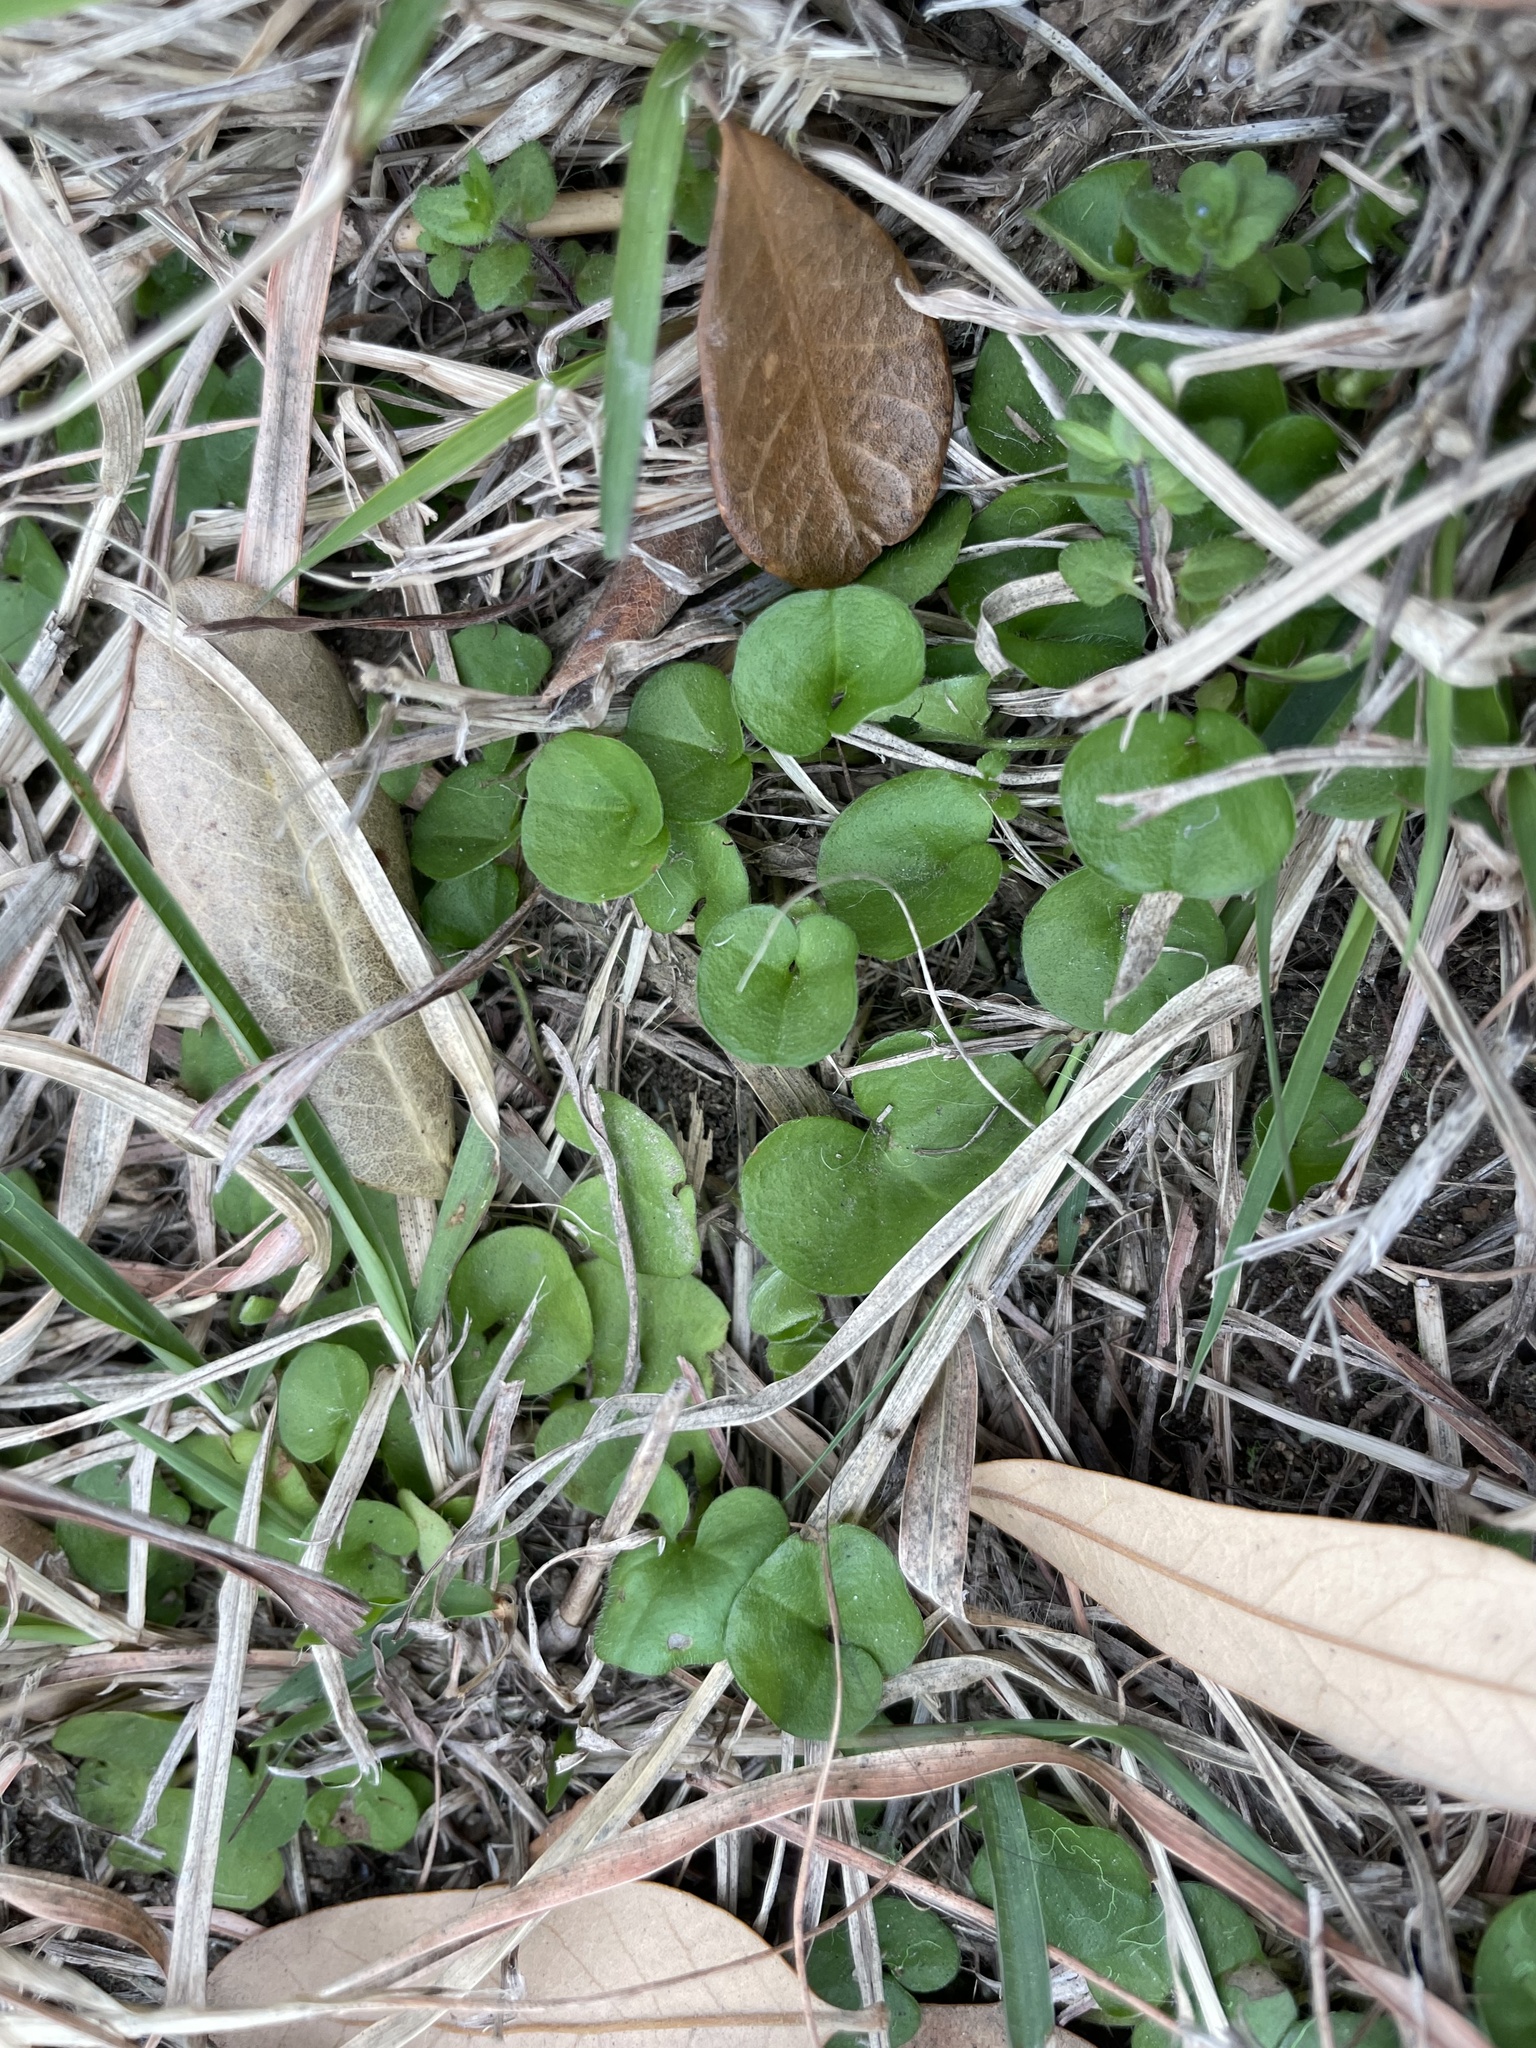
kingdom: Plantae
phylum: Tracheophyta
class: Magnoliopsida
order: Solanales
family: Convolvulaceae
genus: Dichondra
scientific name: Dichondra carolinensis
